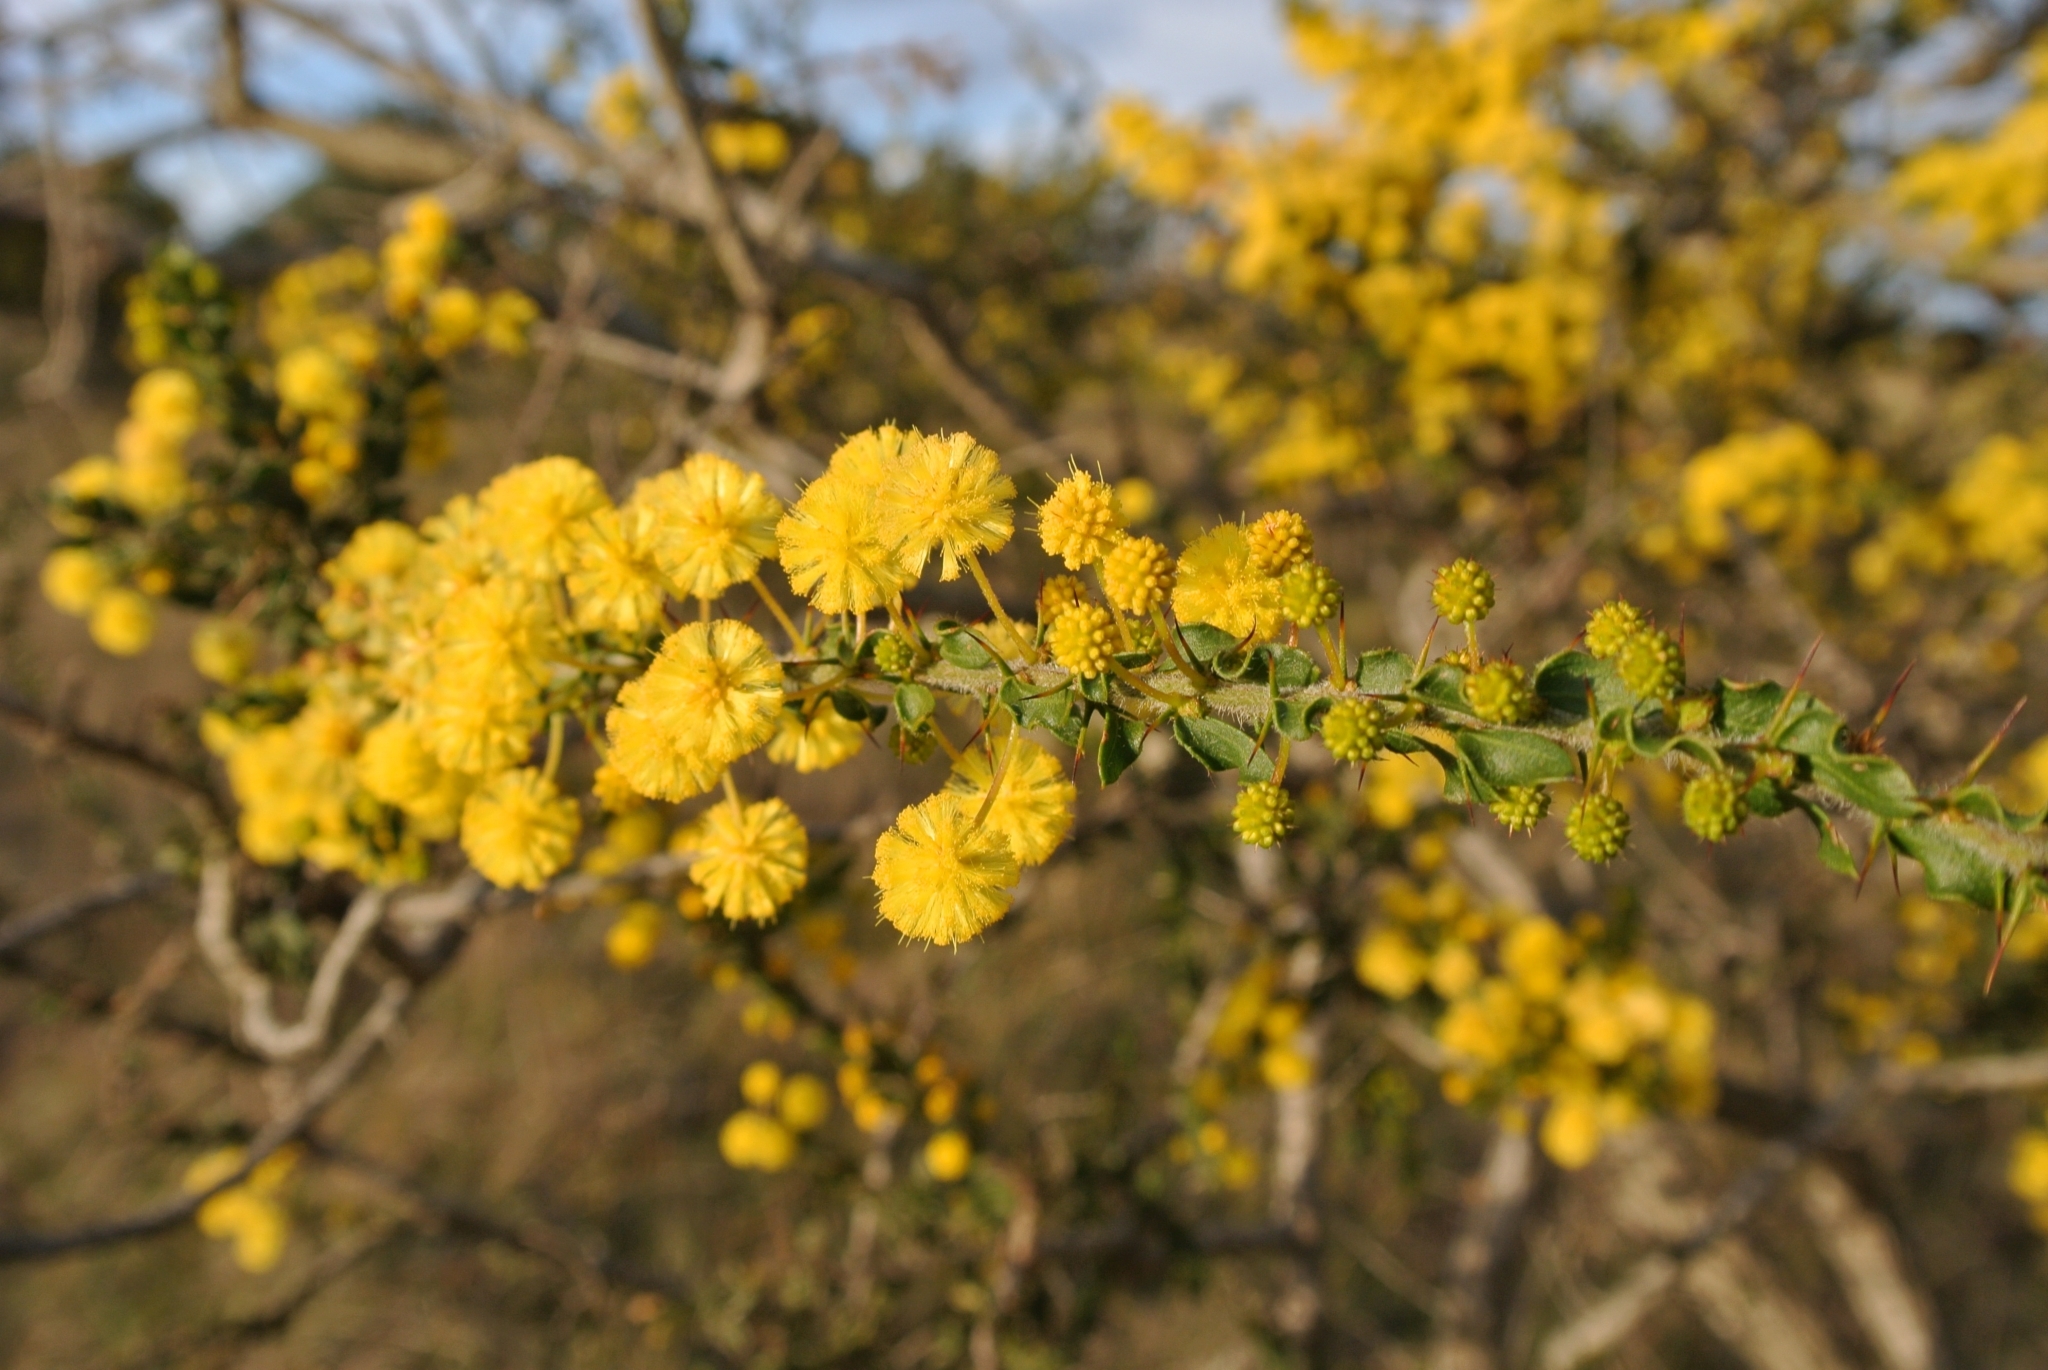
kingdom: Plantae
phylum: Tracheophyta
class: Magnoliopsida
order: Fabales
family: Fabaceae
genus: Acacia
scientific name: Acacia paradoxa
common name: Paradox acacia
